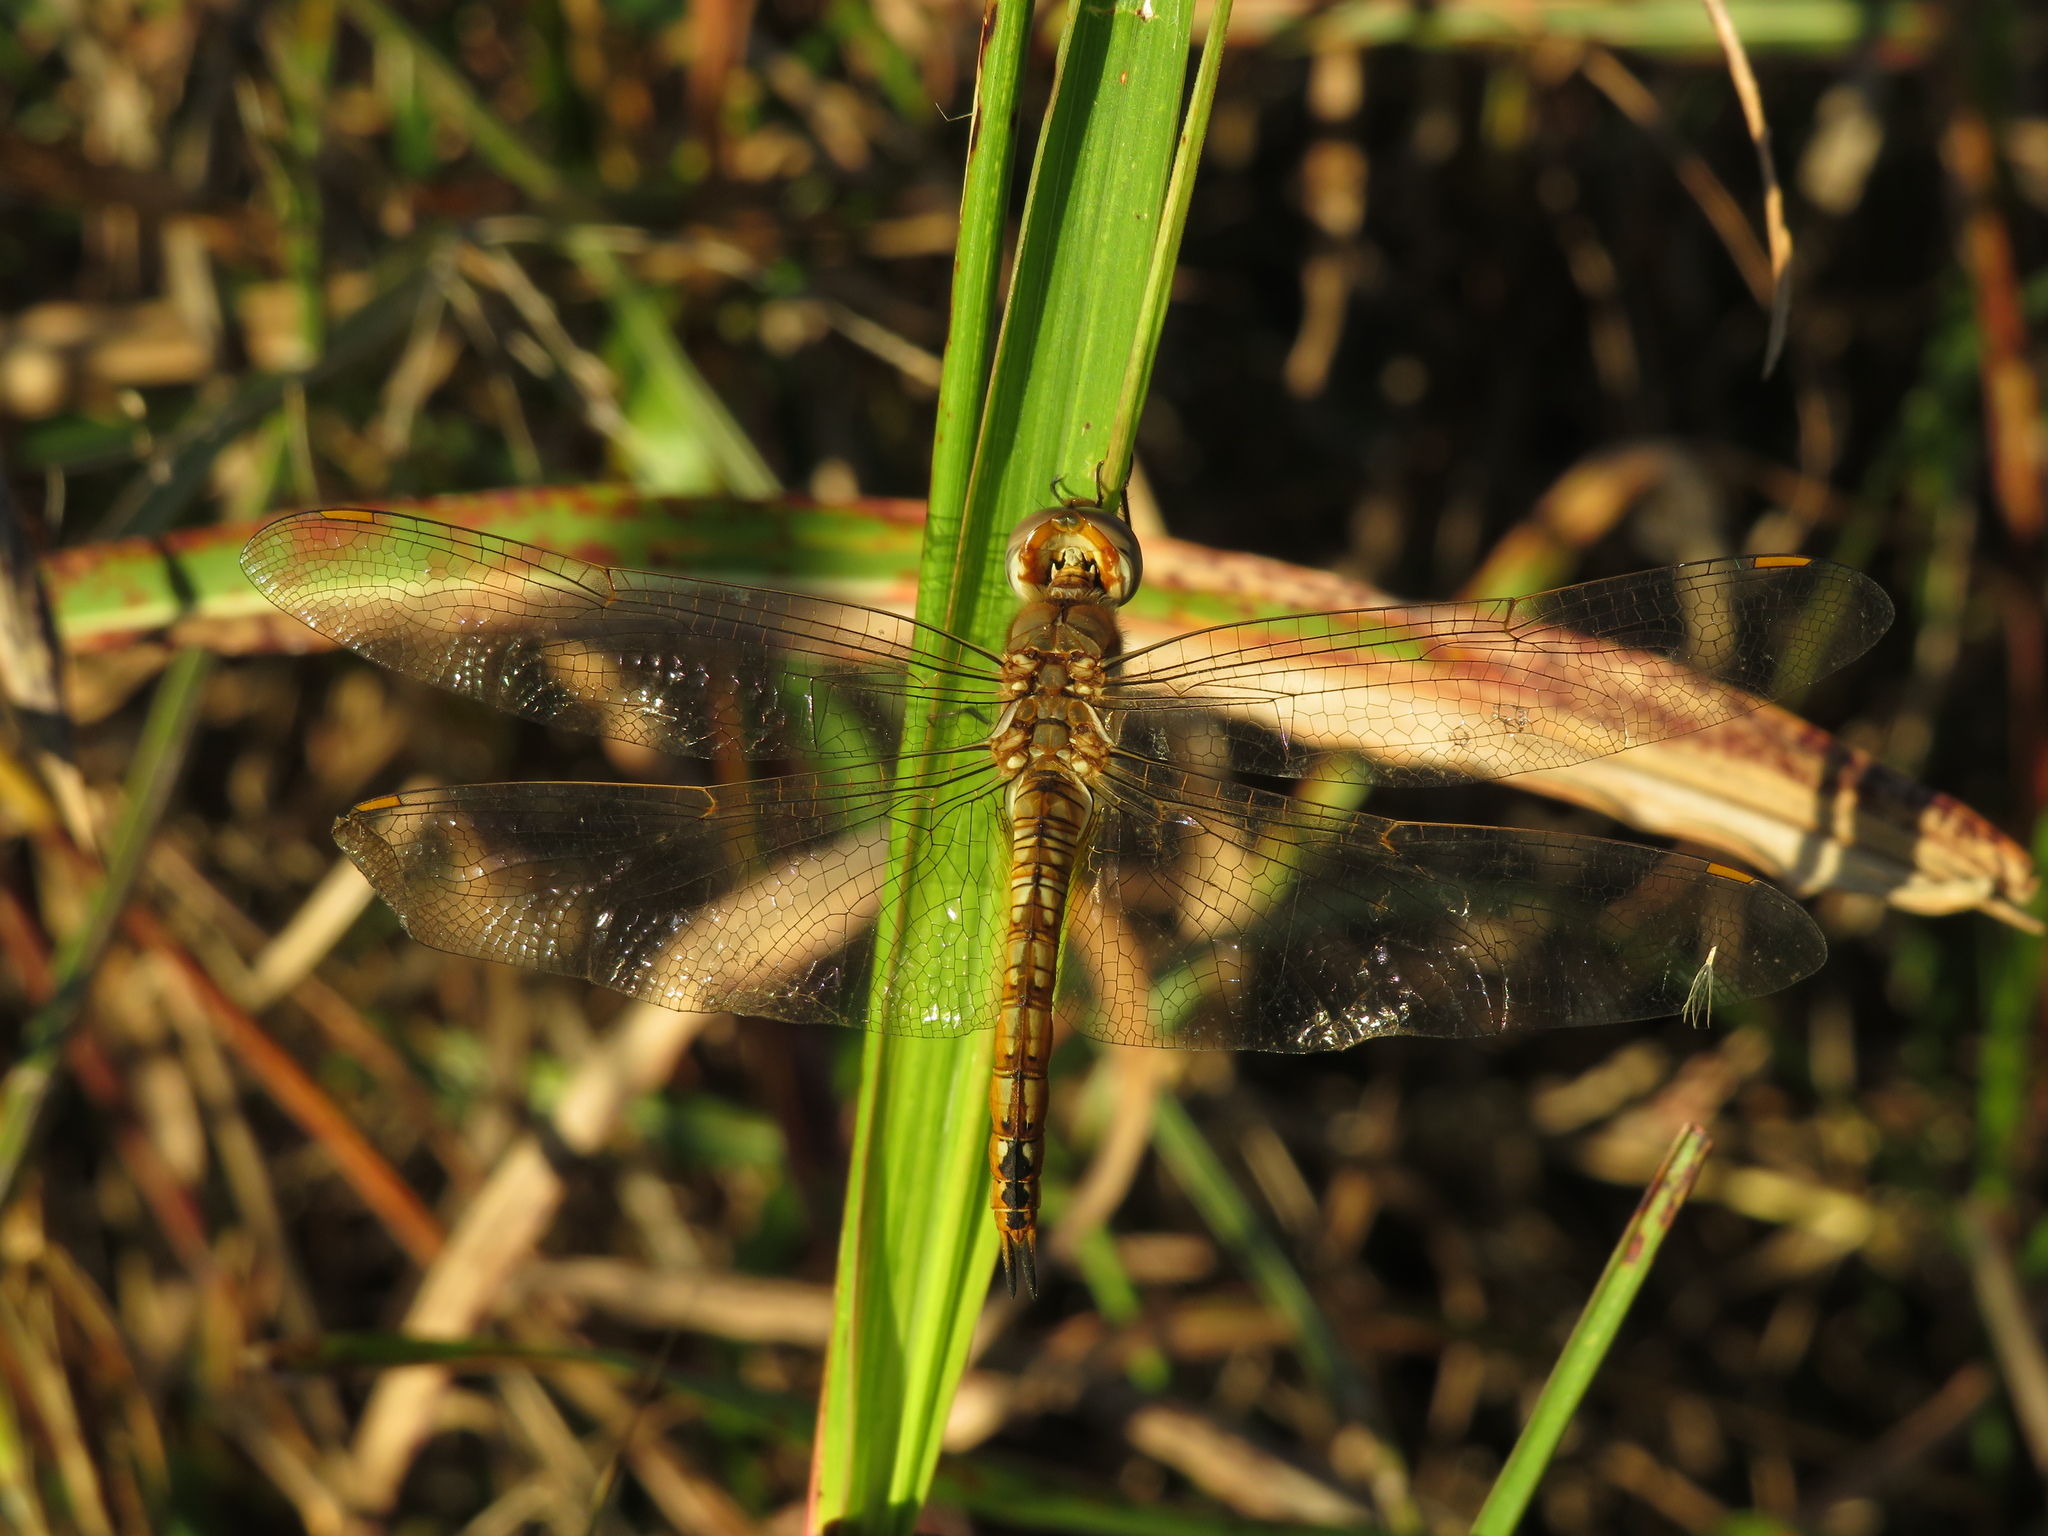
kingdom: Animalia
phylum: Arthropoda
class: Insecta
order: Odonata
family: Libellulidae
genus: Pantala
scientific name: Pantala flavescens
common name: Wandering glider
